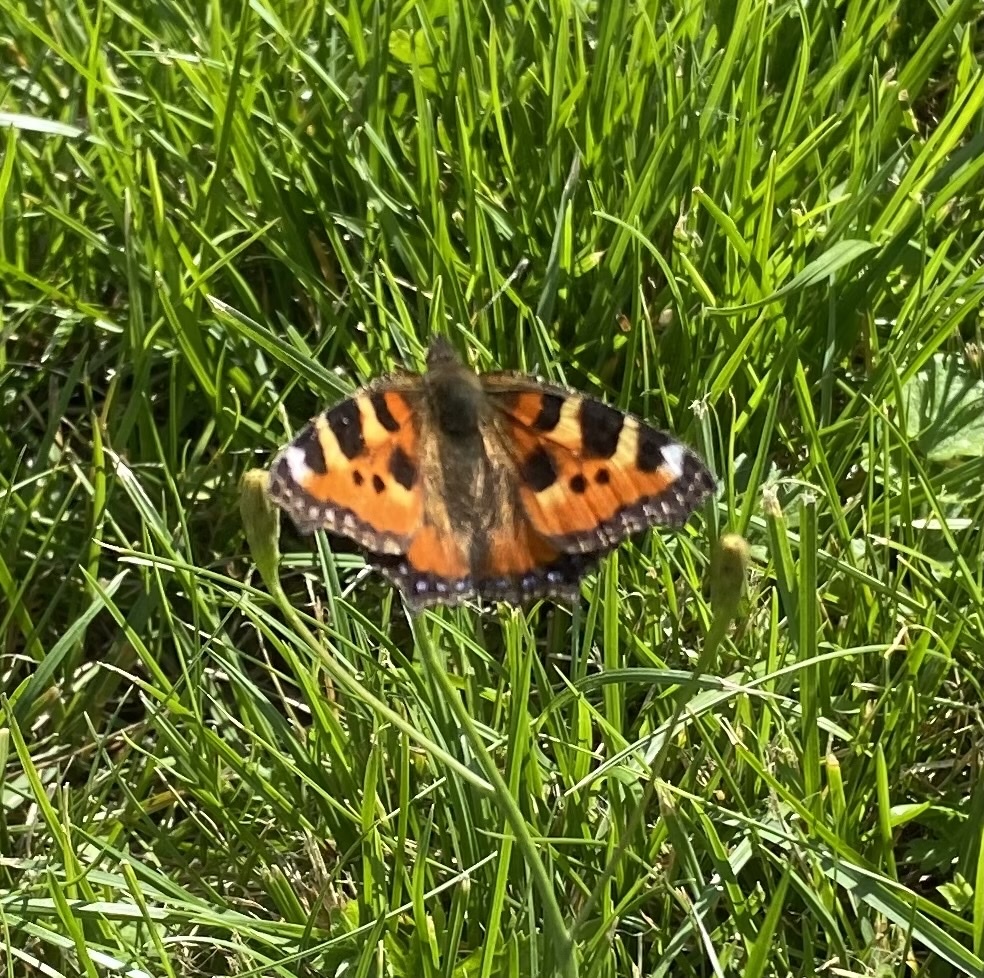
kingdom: Animalia
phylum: Arthropoda
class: Insecta
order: Lepidoptera
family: Nymphalidae
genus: Aglais
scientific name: Aglais urticae
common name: Small tortoiseshell
